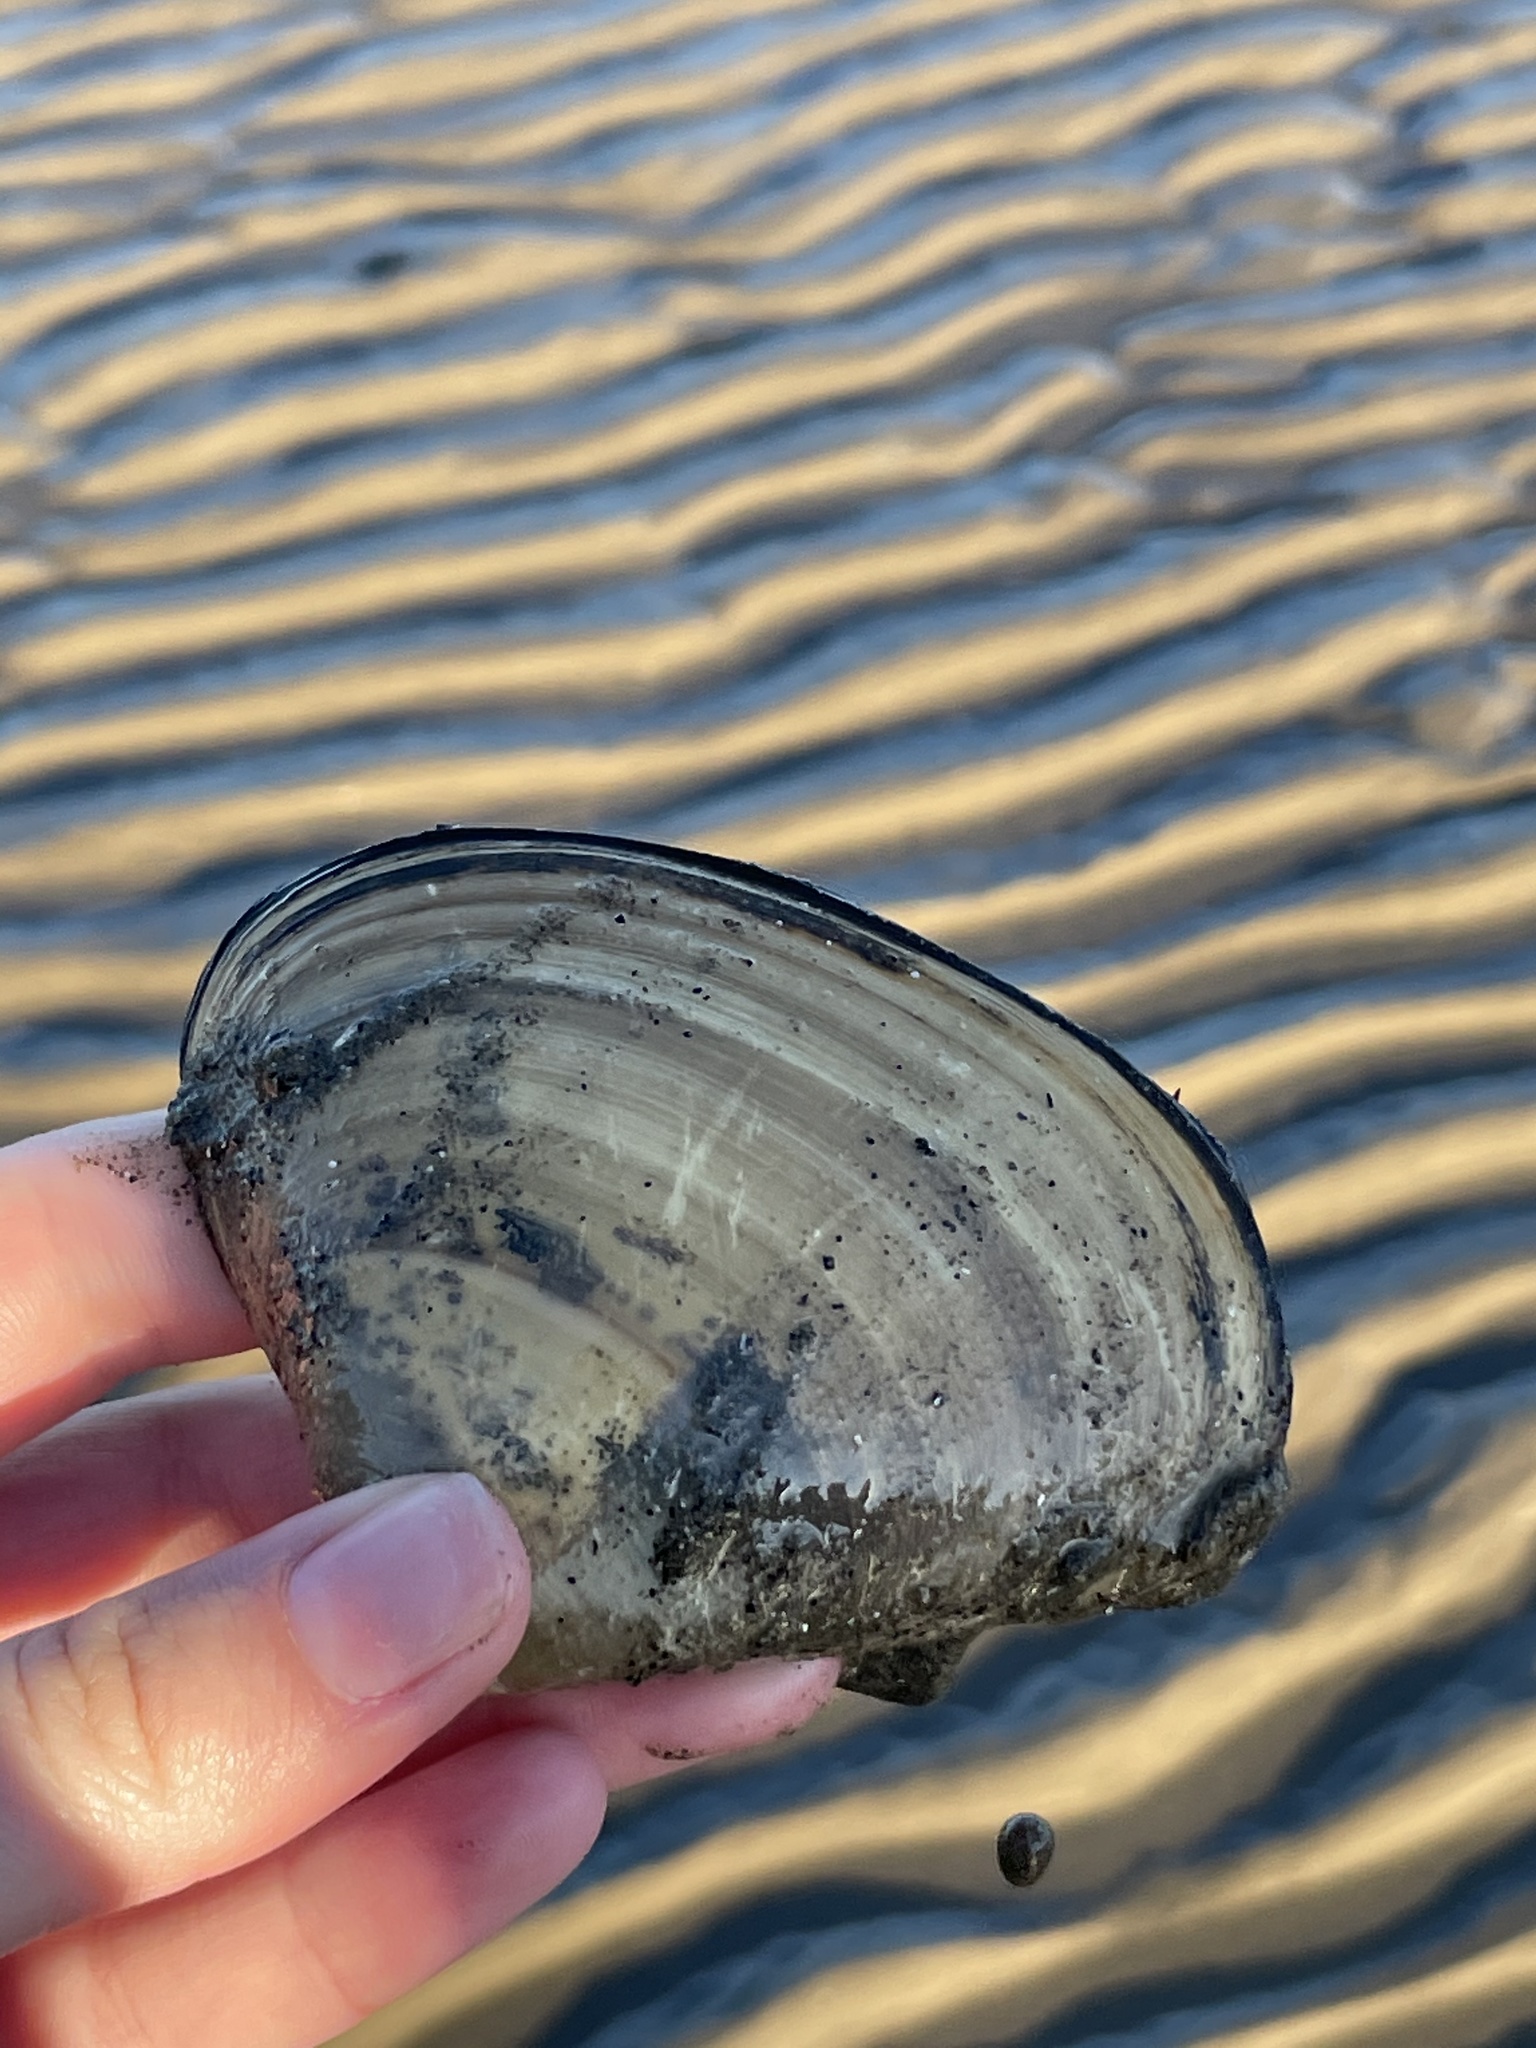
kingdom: Animalia
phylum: Mollusca
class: Bivalvia
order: Venerida
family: Mactridae
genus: Spisula
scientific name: Spisula solidissima
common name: Atlantic surf clam
